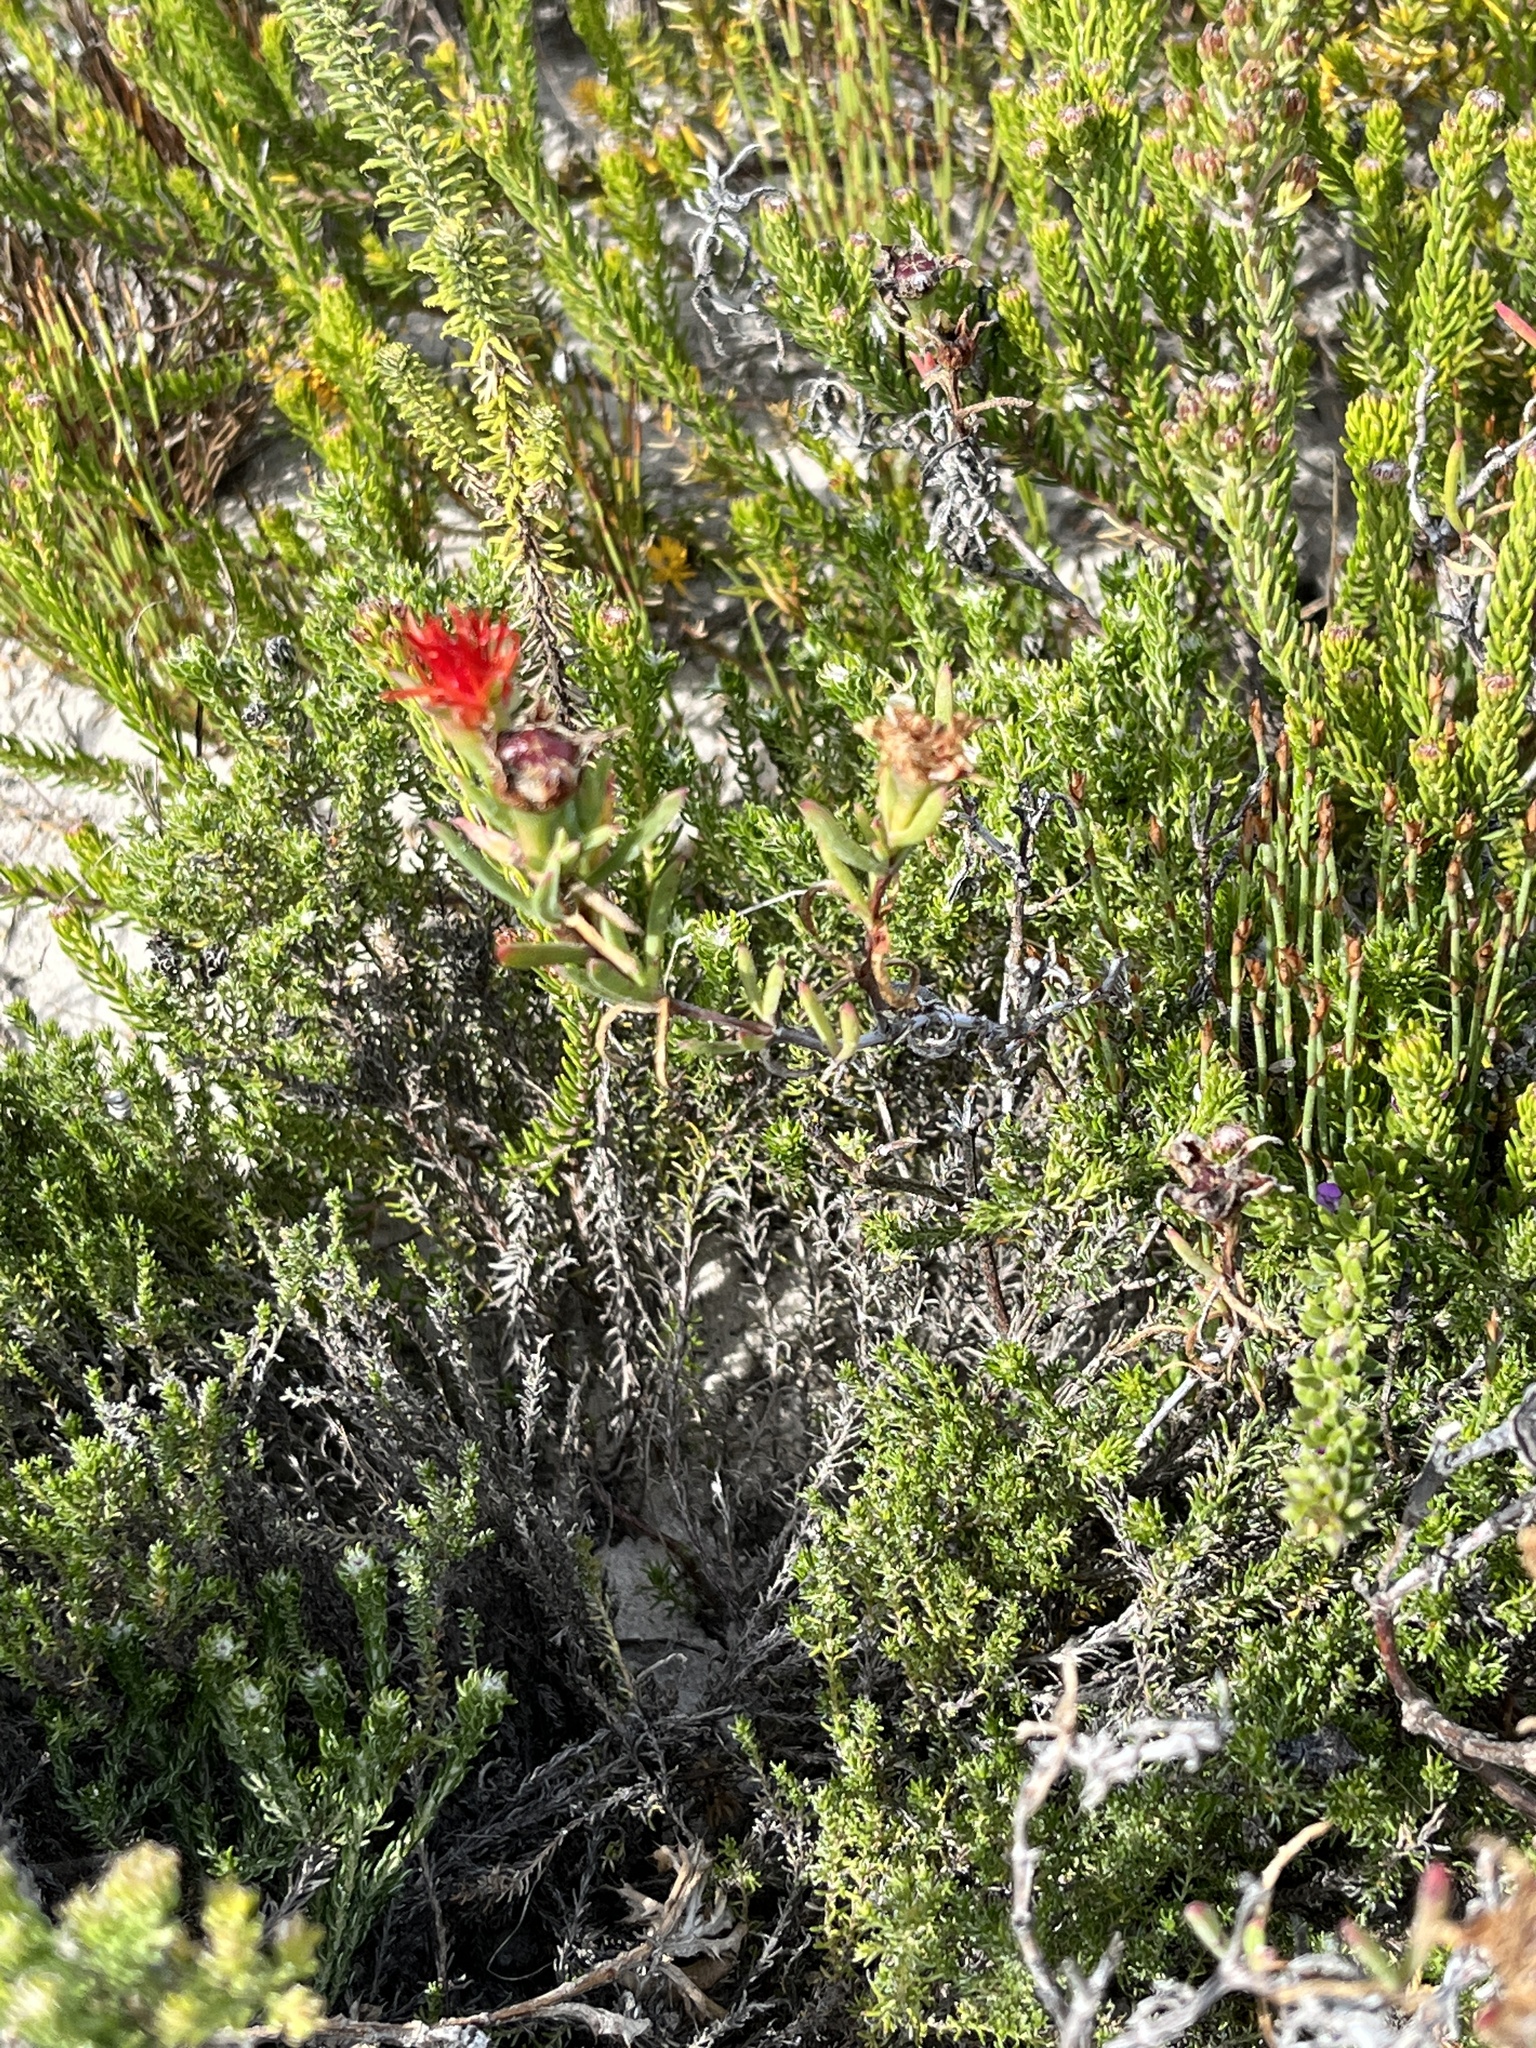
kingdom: Plantae
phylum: Tracheophyta
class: Magnoliopsida
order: Caryophyllales
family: Aizoaceae
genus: Lampranthus
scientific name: Lampranthus fergusoniae
